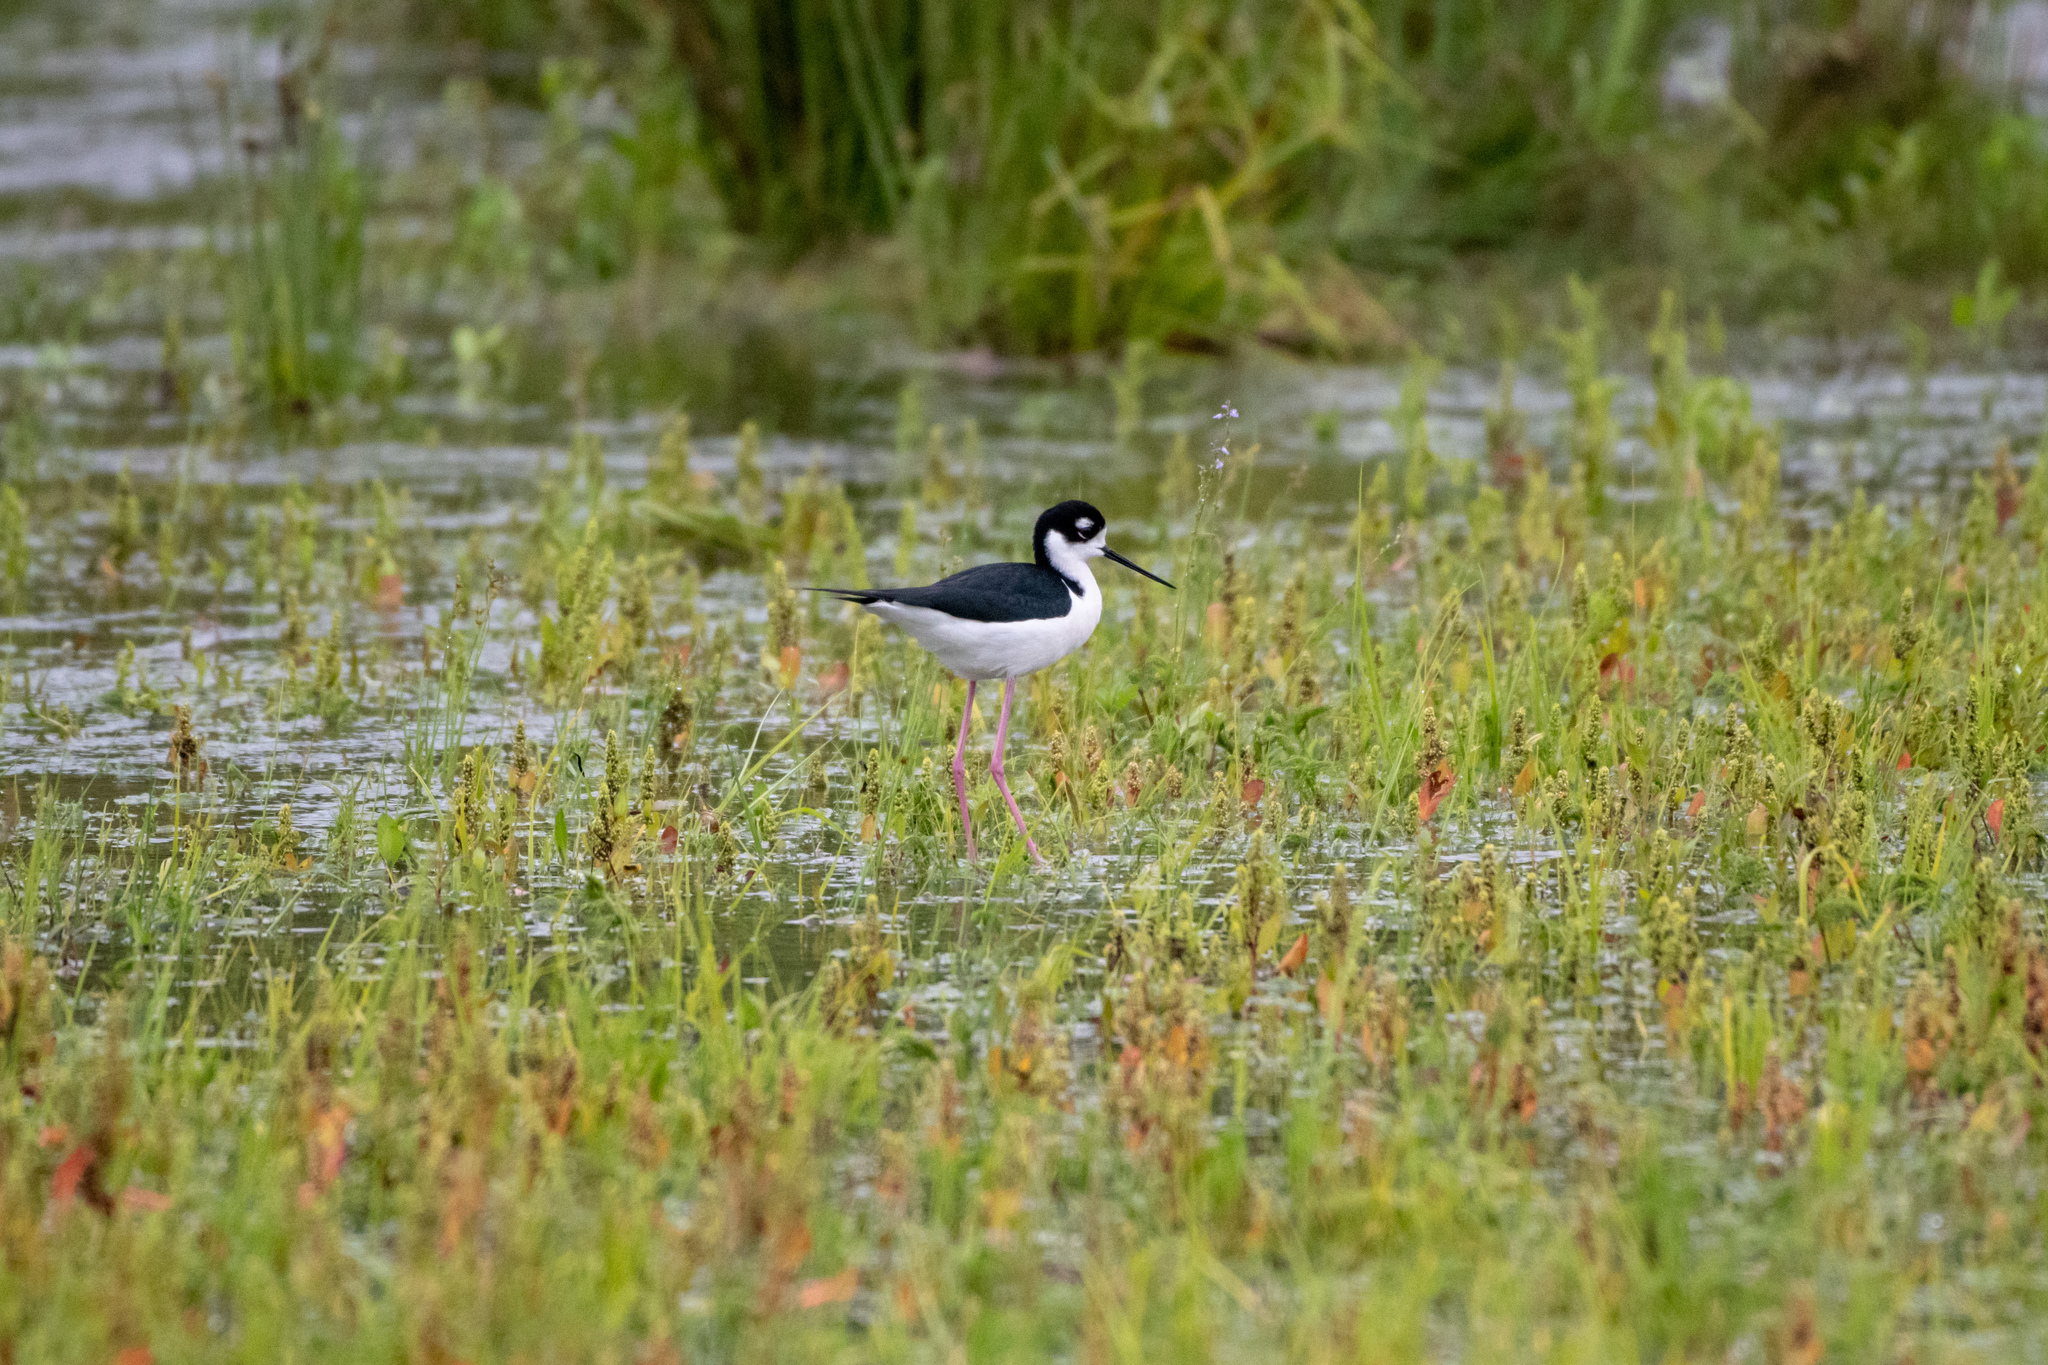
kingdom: Animalia
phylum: Chordata
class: Aves
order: Charadriiformes
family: Recurvirostridae
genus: Himantopus
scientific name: Himantopus mexicanus
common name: Black-necked stilt
